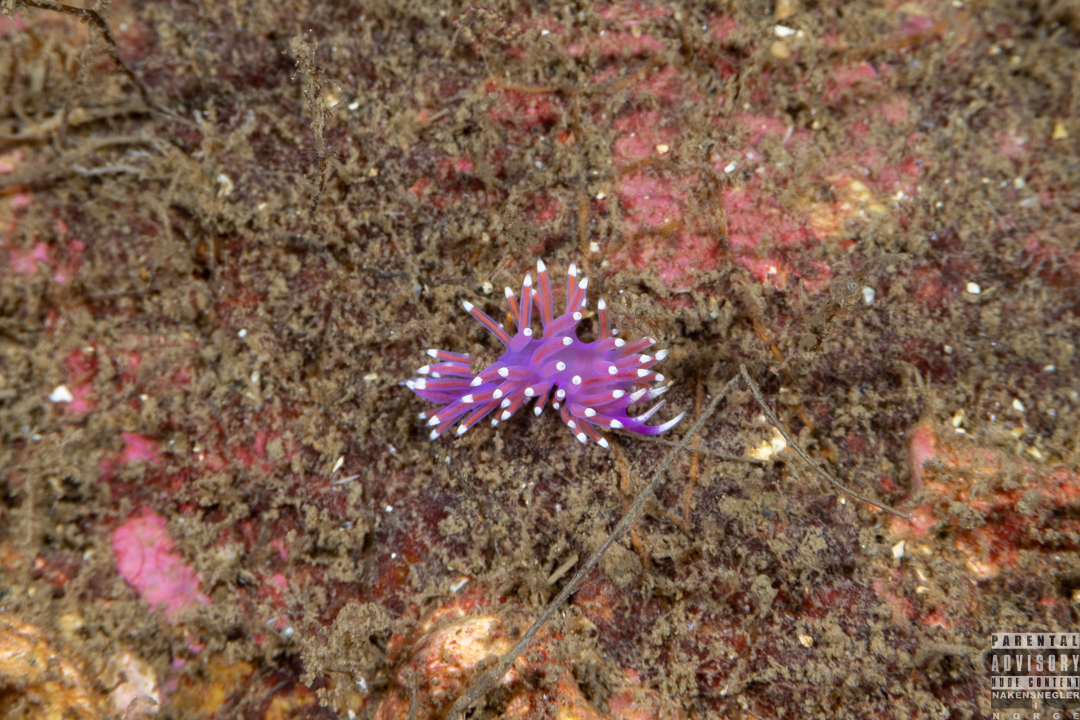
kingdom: Animalia
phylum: Mollusca
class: Gastropoda
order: Nudibranchia
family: Flabellinidae
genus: Edmundsella
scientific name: Edmundsella pedata
